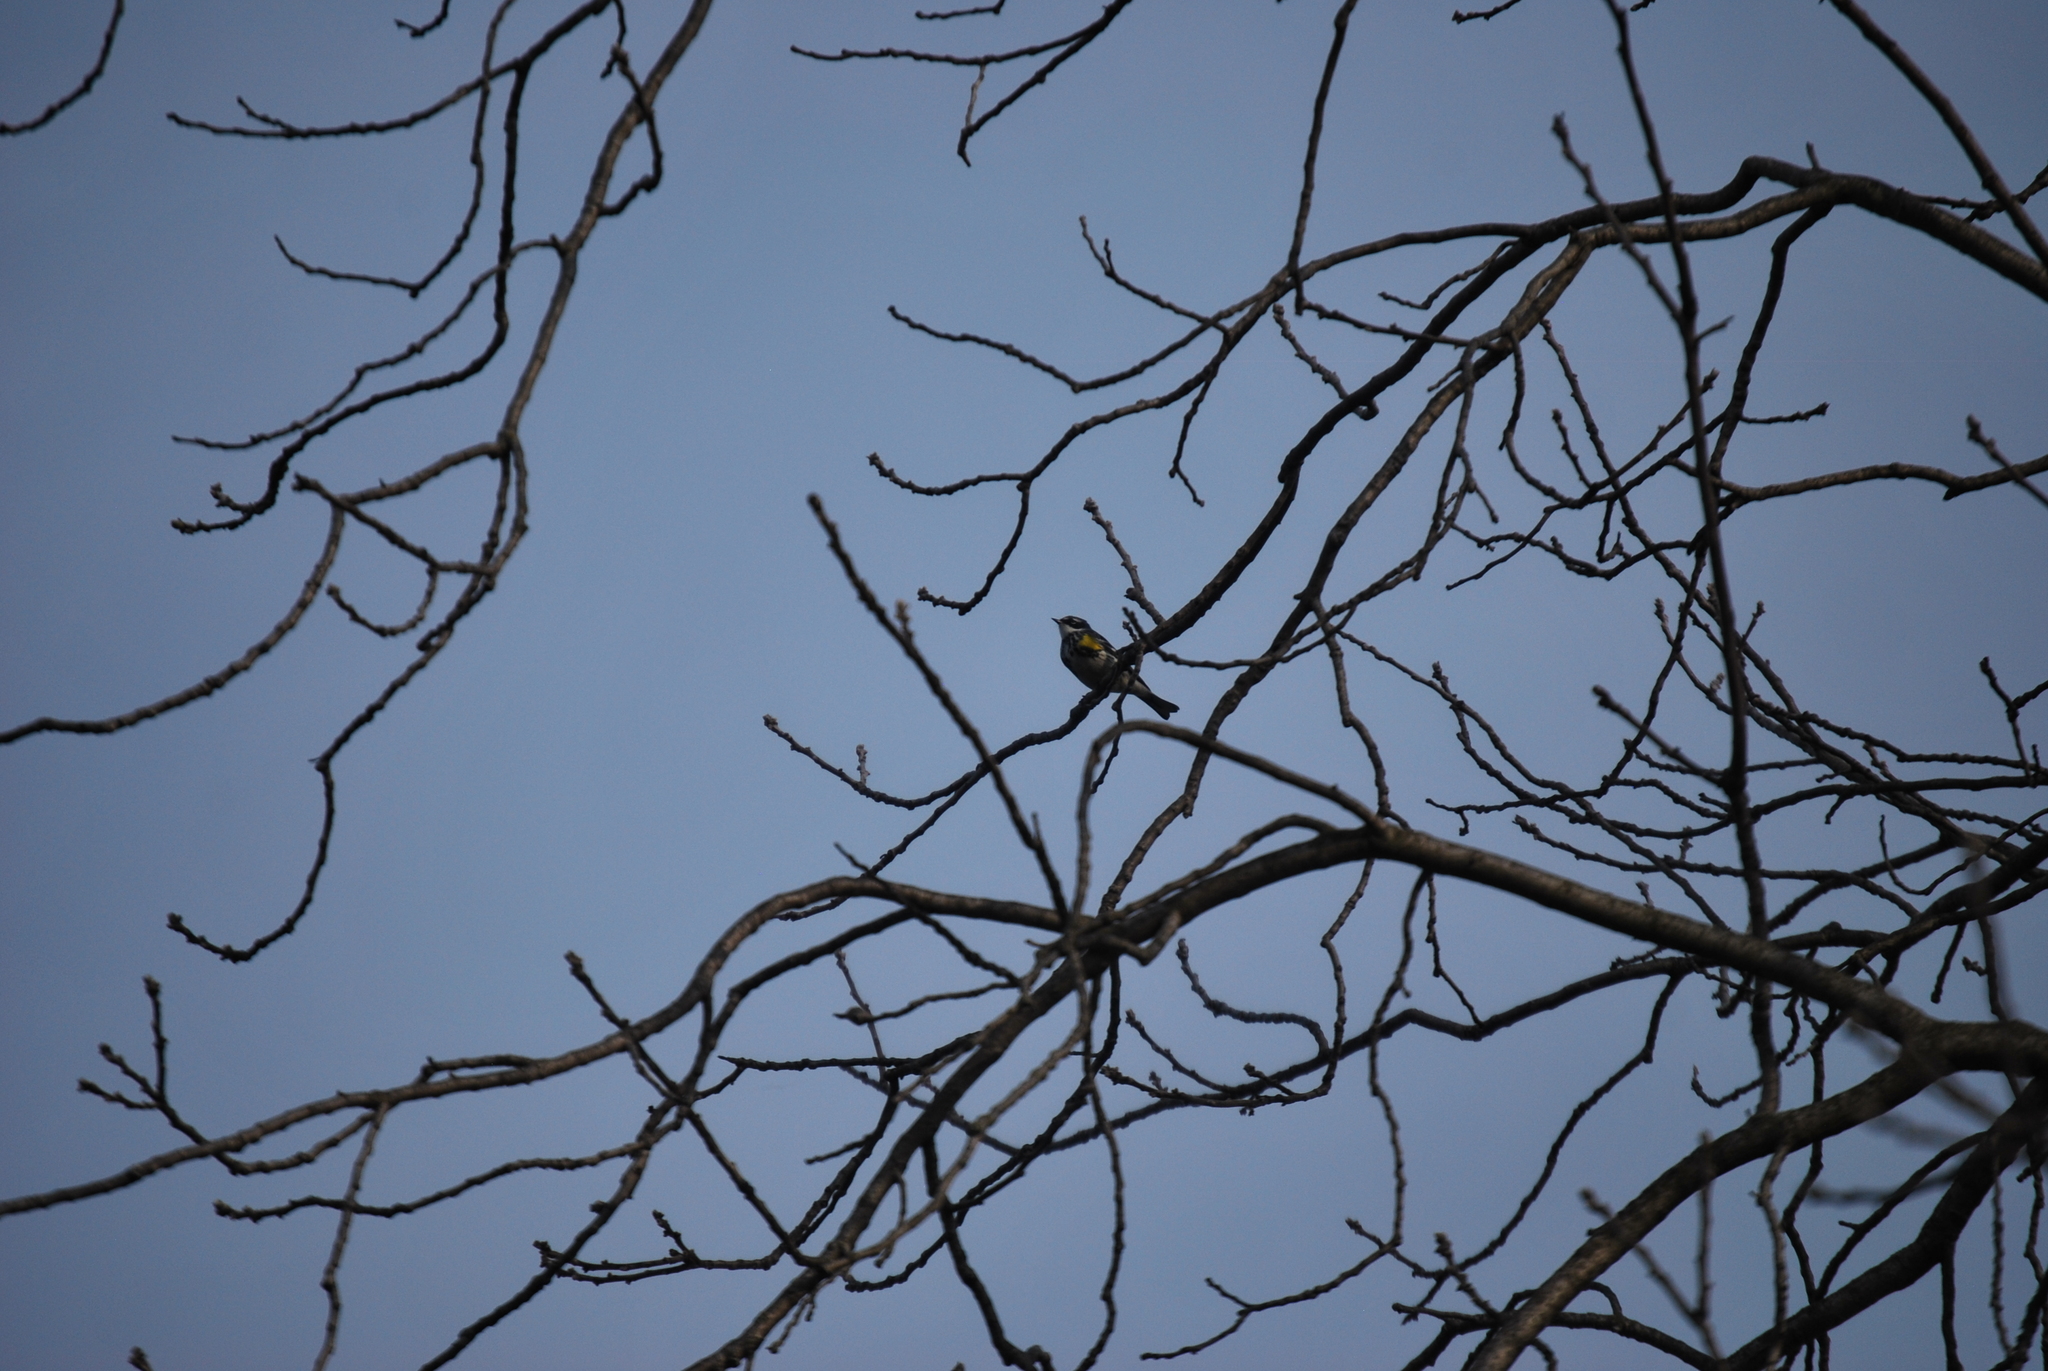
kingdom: Animalia
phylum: Chordata
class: Aves
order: Passeriformes
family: Parulidae
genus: Setophaga
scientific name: Setophaga coronata
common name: Myrtle warbler
